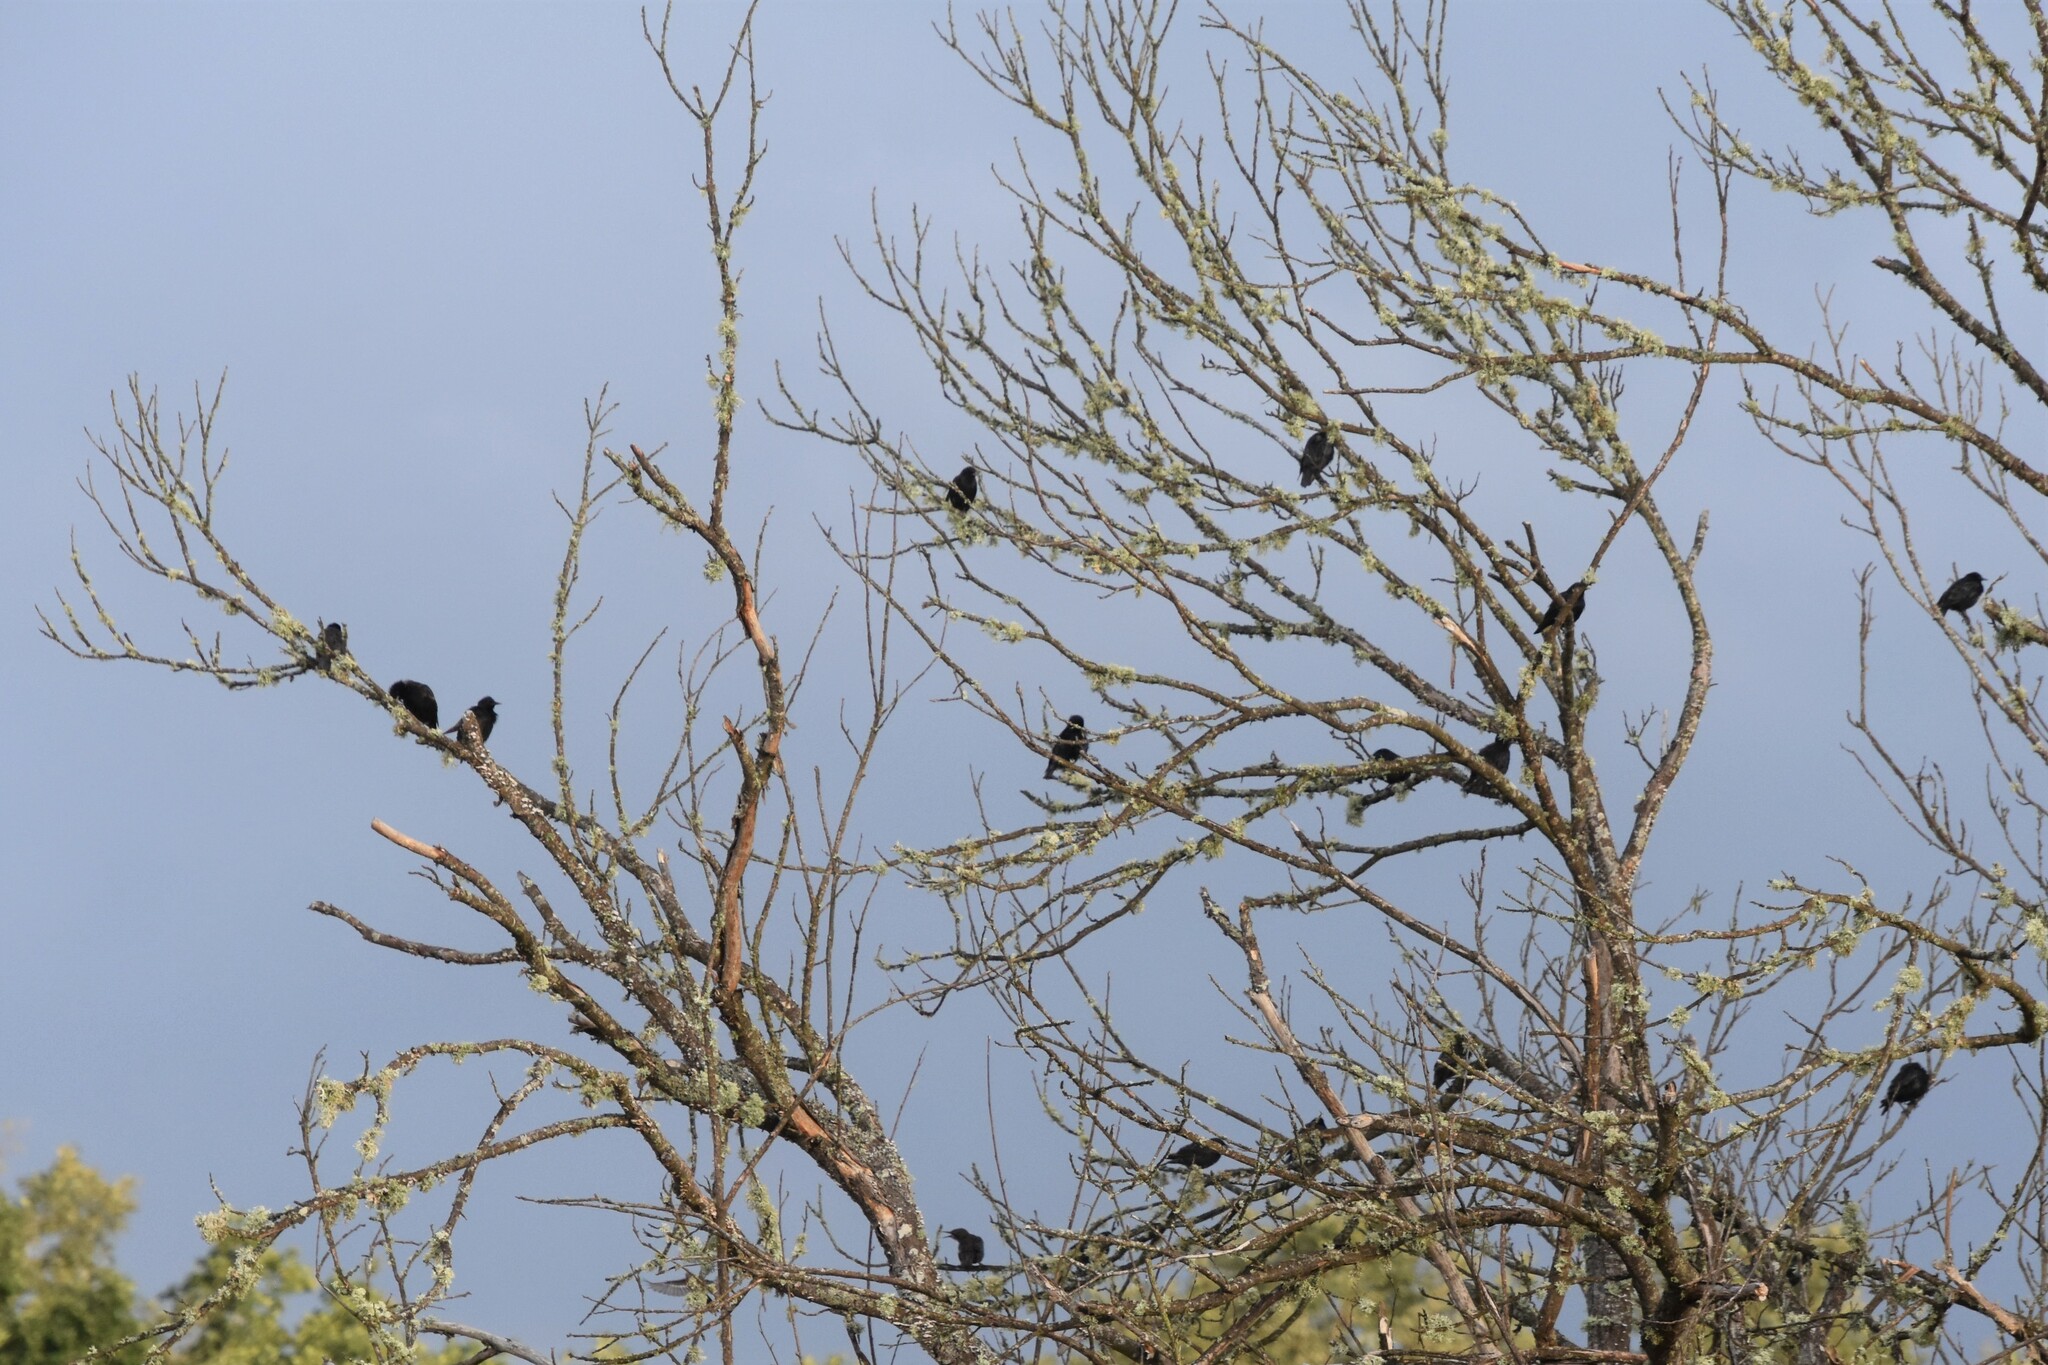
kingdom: Animalia
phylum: Chordata
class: Aves
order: Passeriformes
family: Sturnidae
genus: Sturnus
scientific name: Sturnus unicolor
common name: Spotless starling
